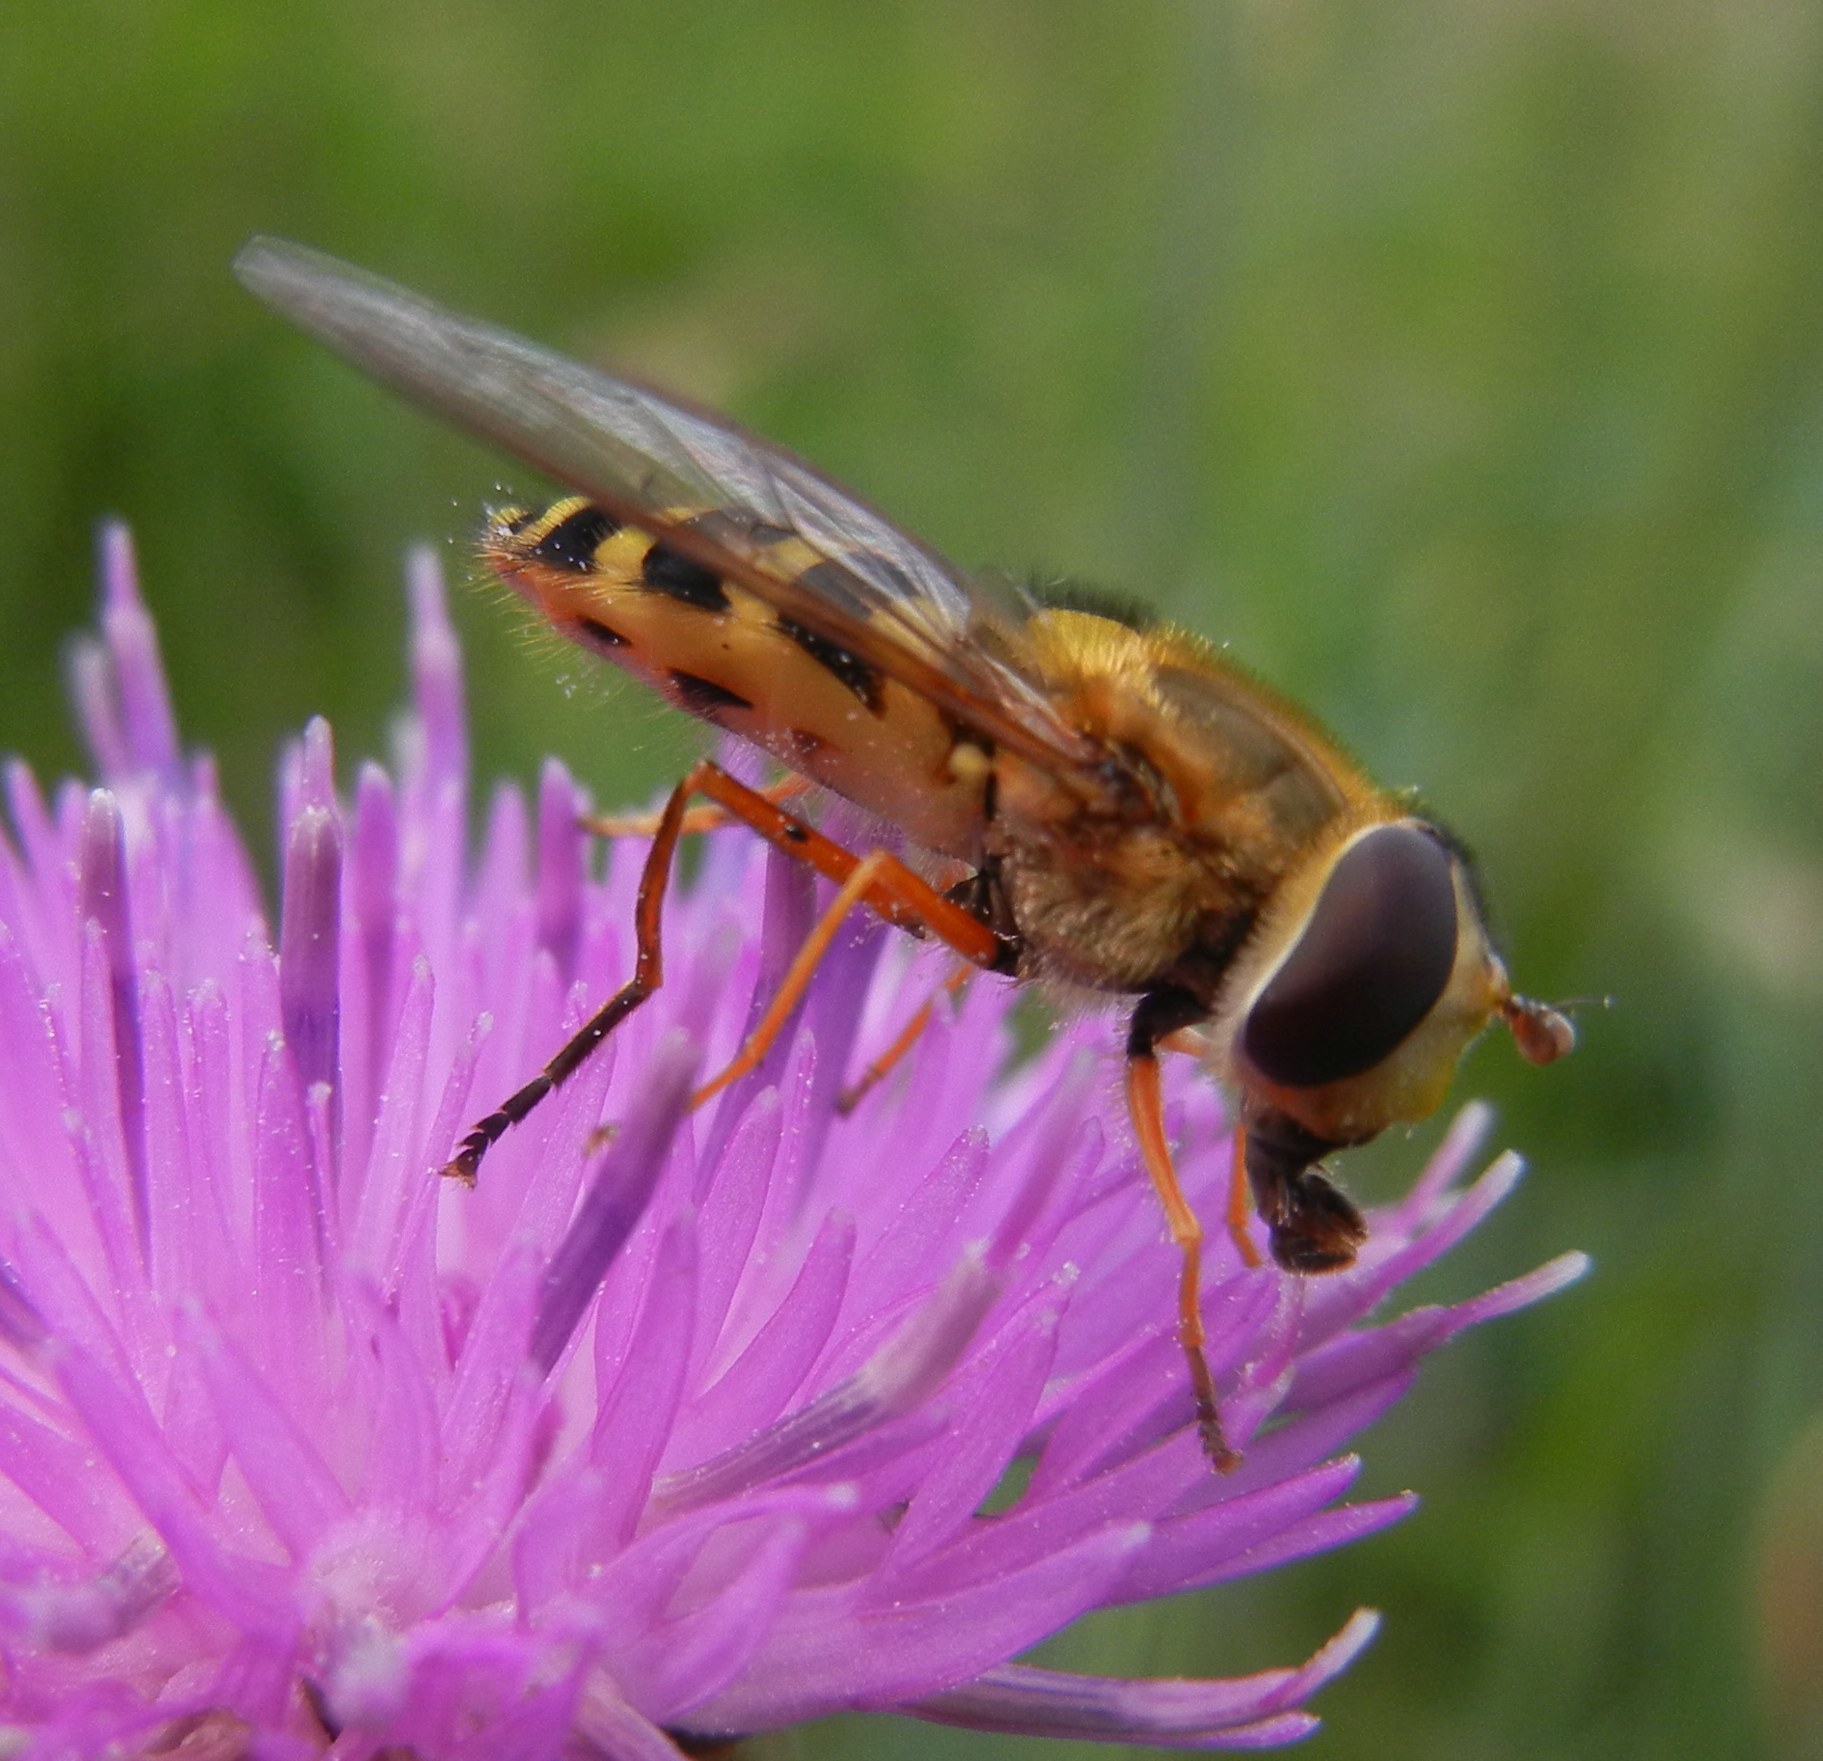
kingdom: Animalia
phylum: Arthropoda
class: Insecta
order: Diptera
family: Syrphidae
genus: Syrphus
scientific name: Syrphus ribesii
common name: Common flower fly
